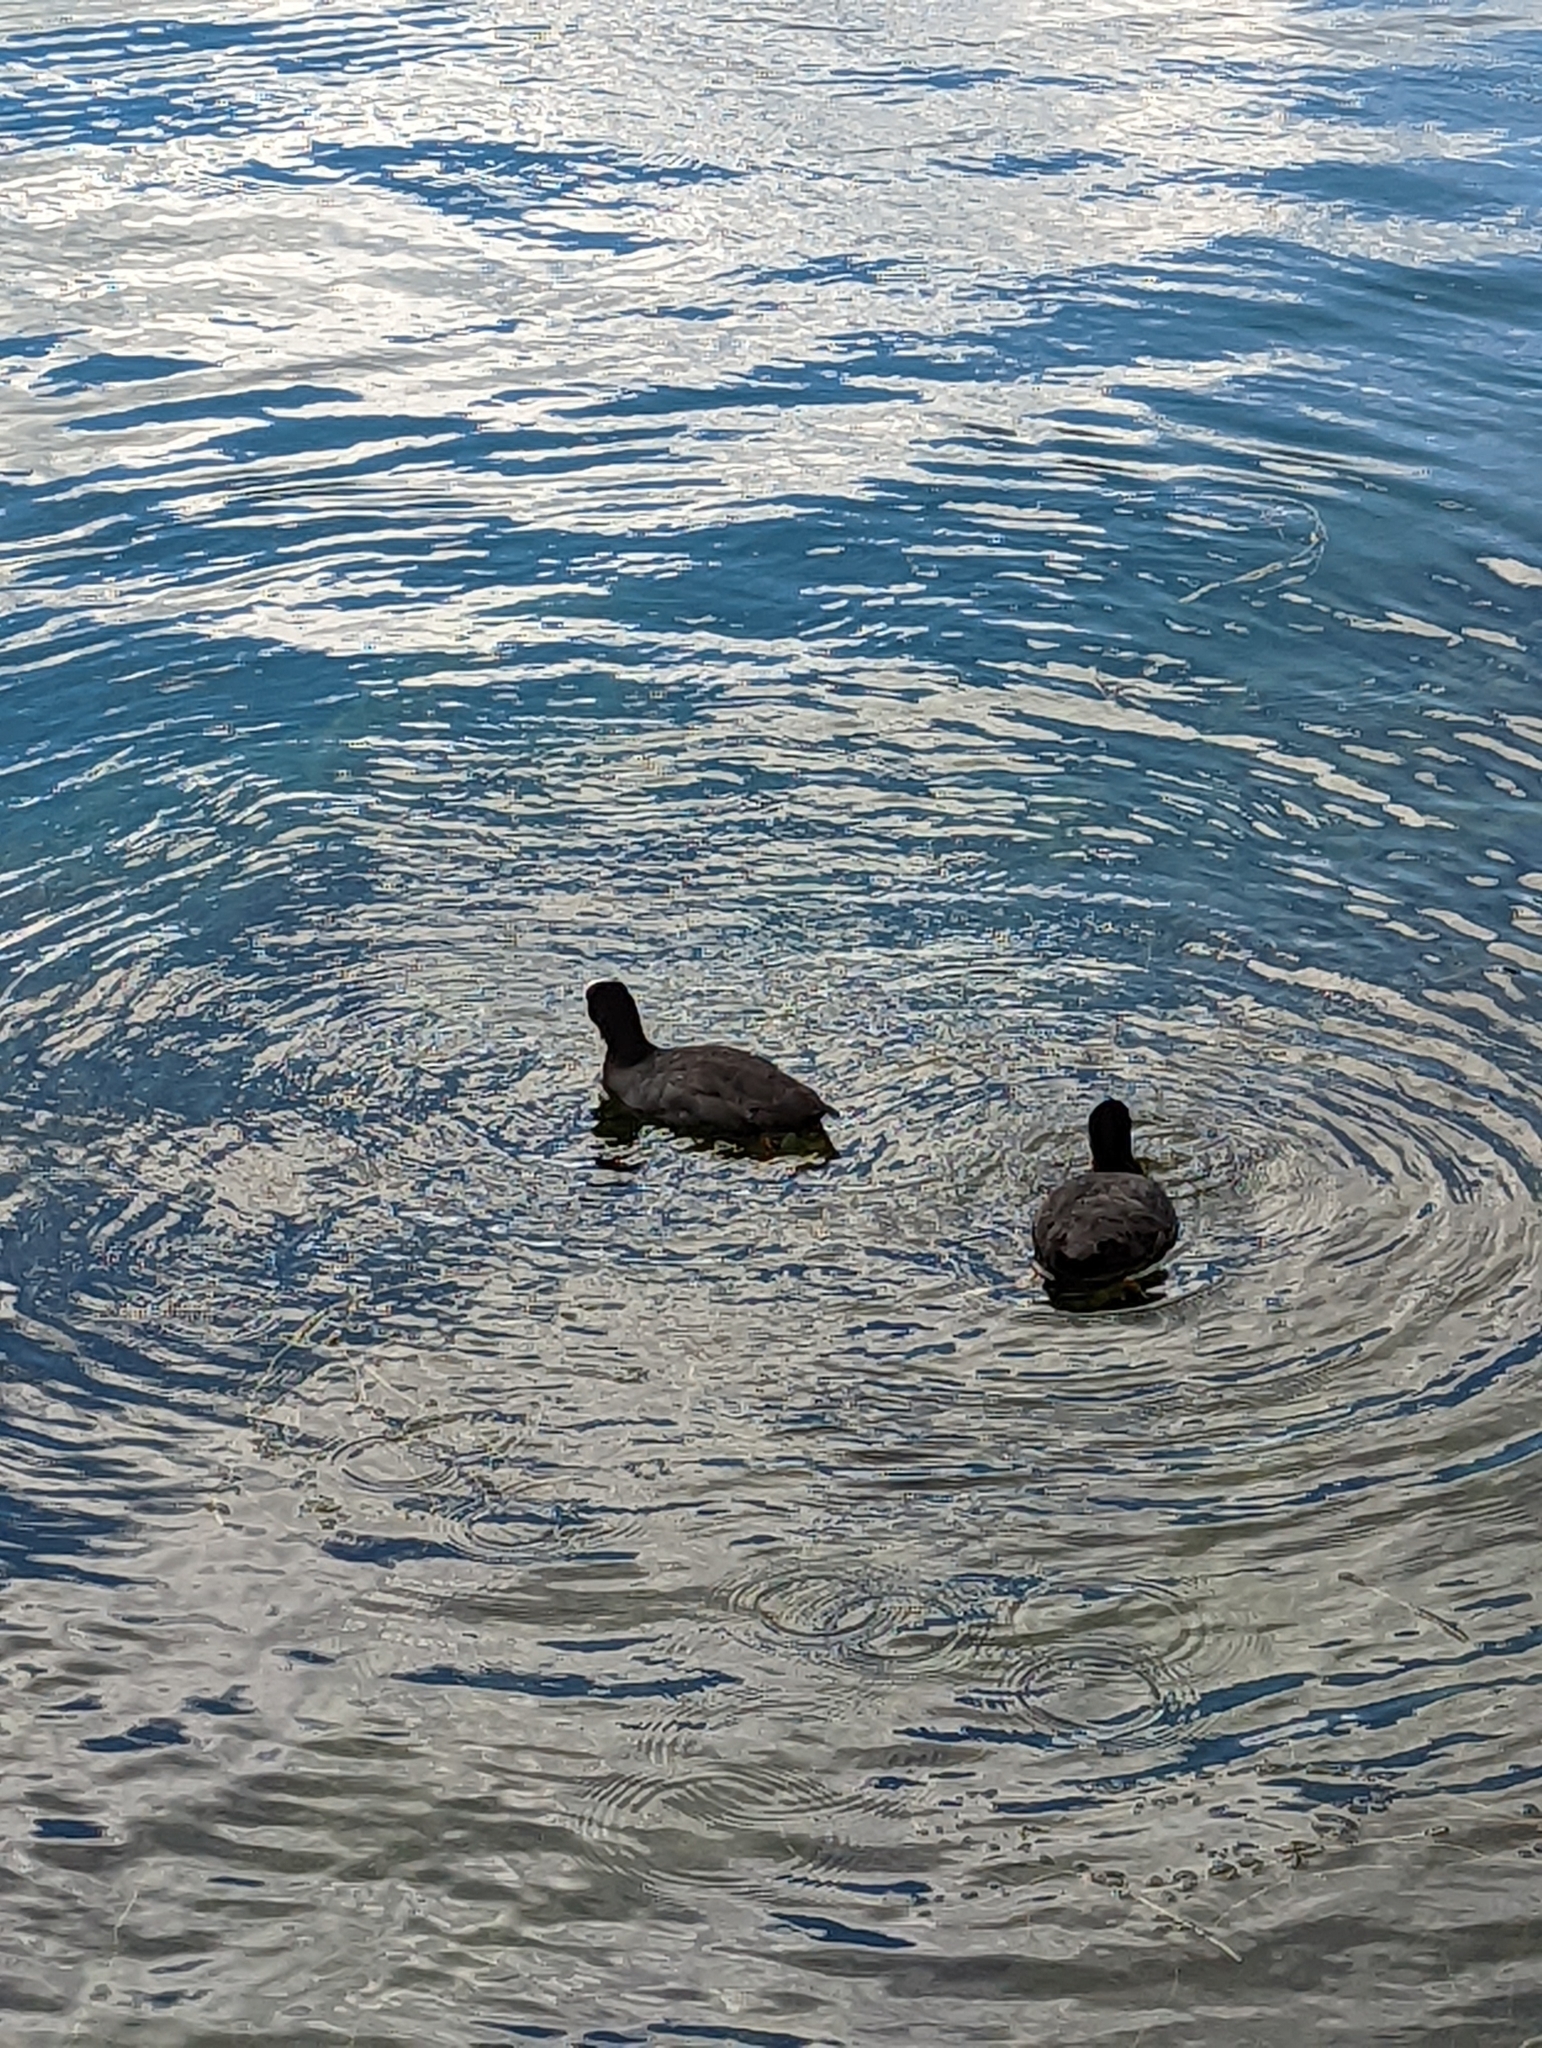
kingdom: Animalia
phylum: Chordata
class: Aves
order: Gruiformes
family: Rallidae
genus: Fulica
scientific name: Fulica atra
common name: Eurasian coot
